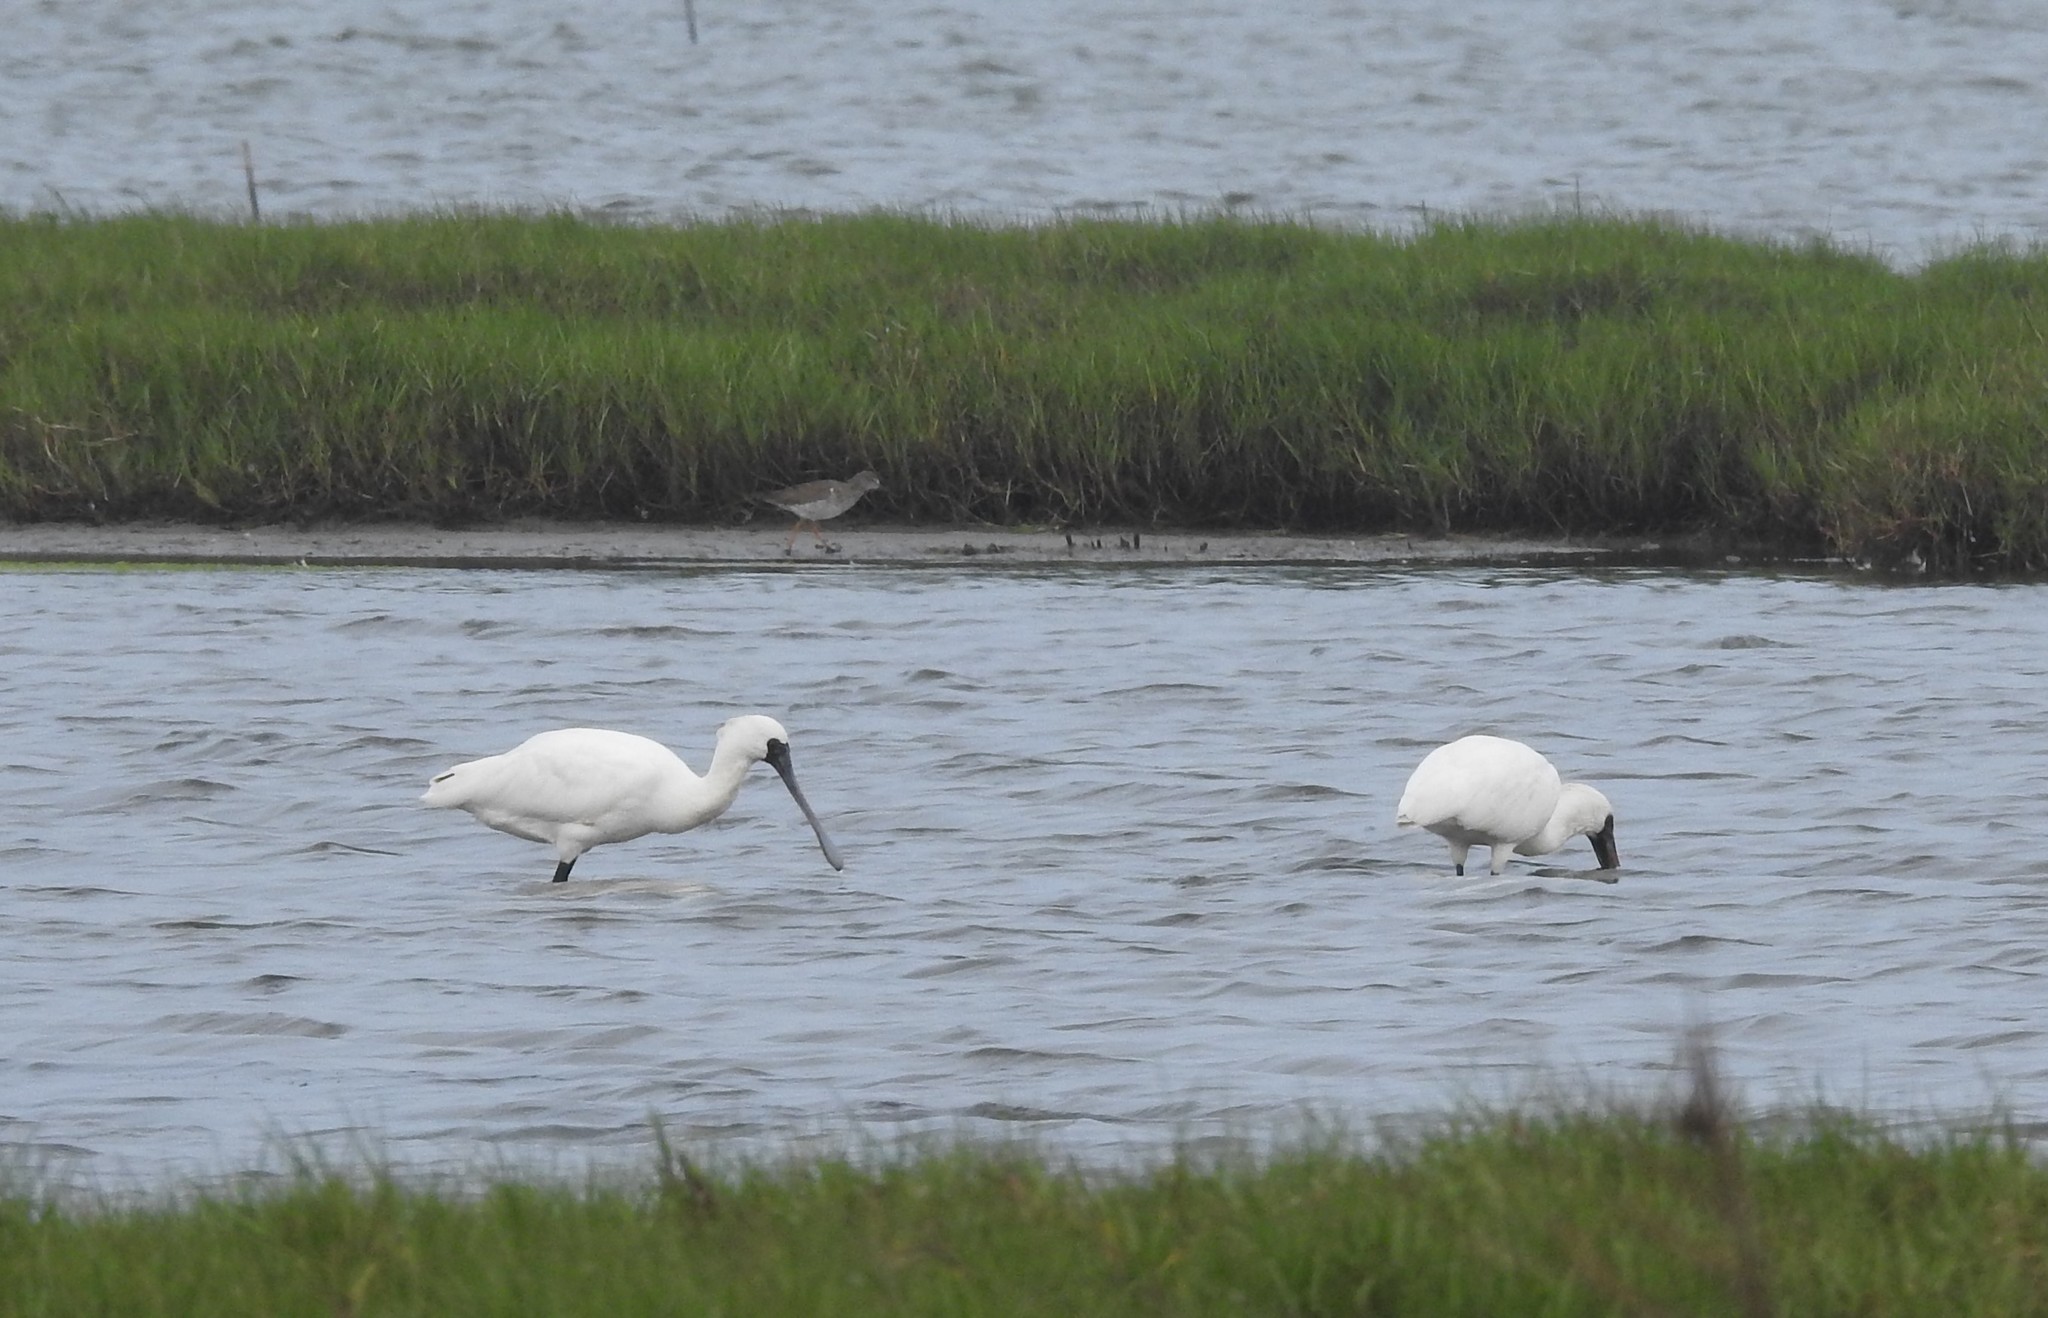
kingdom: Animalia
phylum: Chordata
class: Aves
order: Pelecaniformes
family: Threskiornithidae
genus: Platalea
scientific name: Platalea minor
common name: Black-faced spoonbill
